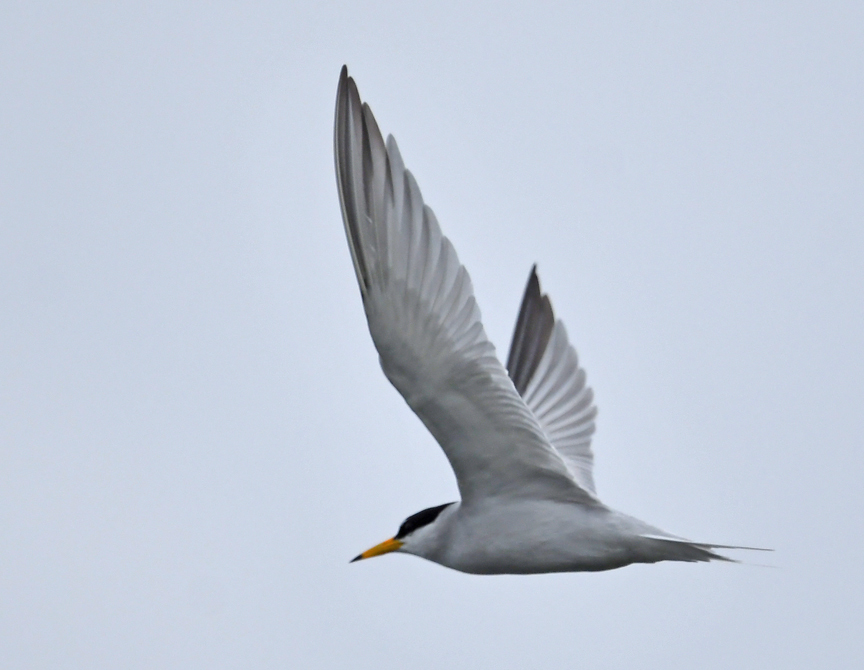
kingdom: Animalia
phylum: Chordata
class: Aves
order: Charadriiformes
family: Laridae
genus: Sternula
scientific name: Sternula antillarum
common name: Least tern
